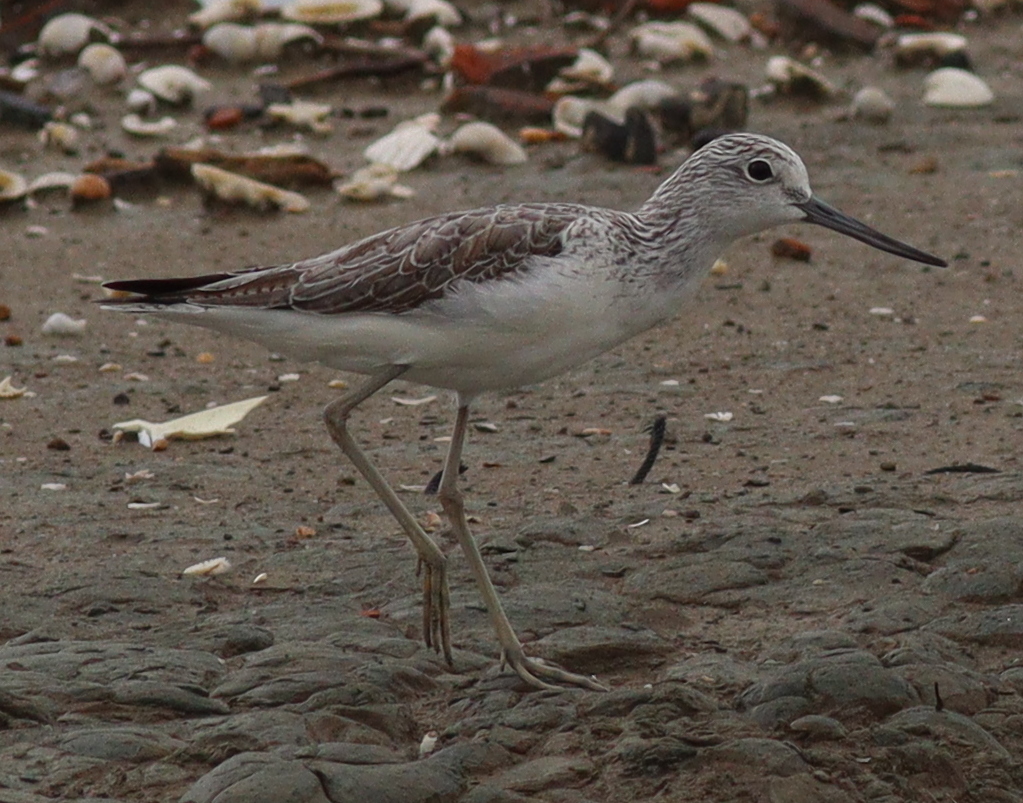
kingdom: Animalia
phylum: Chordata
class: Aves
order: Charadriiformes
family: Scolopacidae
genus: Tringa
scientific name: Tringa nebularia
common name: Common greenshank
